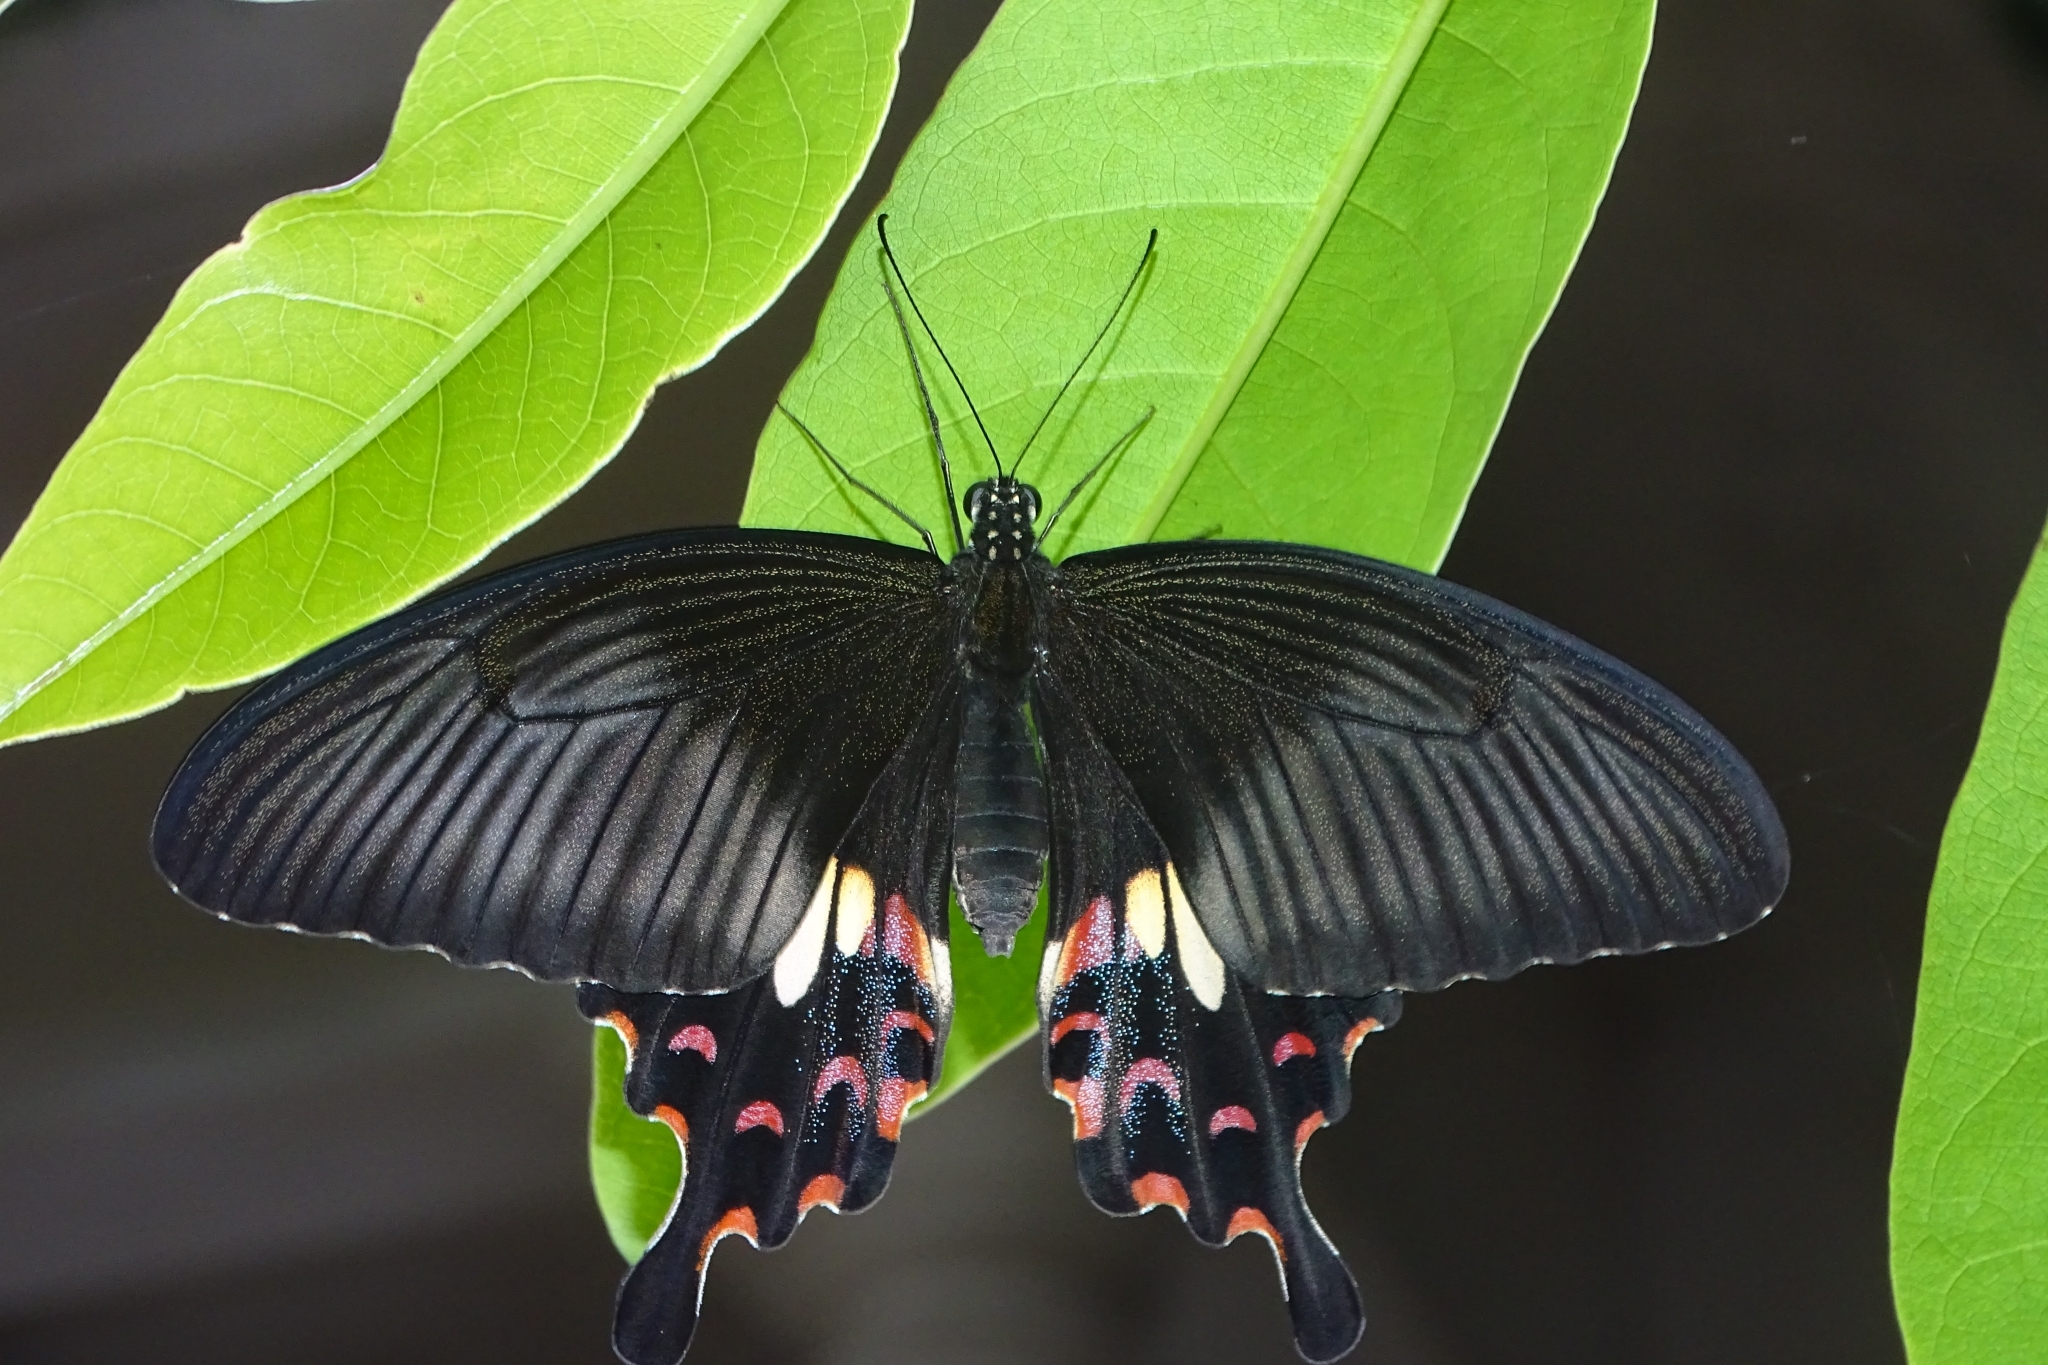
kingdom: Animalia
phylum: Arthropoda
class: Insecta
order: Lepidoptera
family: Papilionidae
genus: Papilio
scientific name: Papilio polytes
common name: Common mormon
